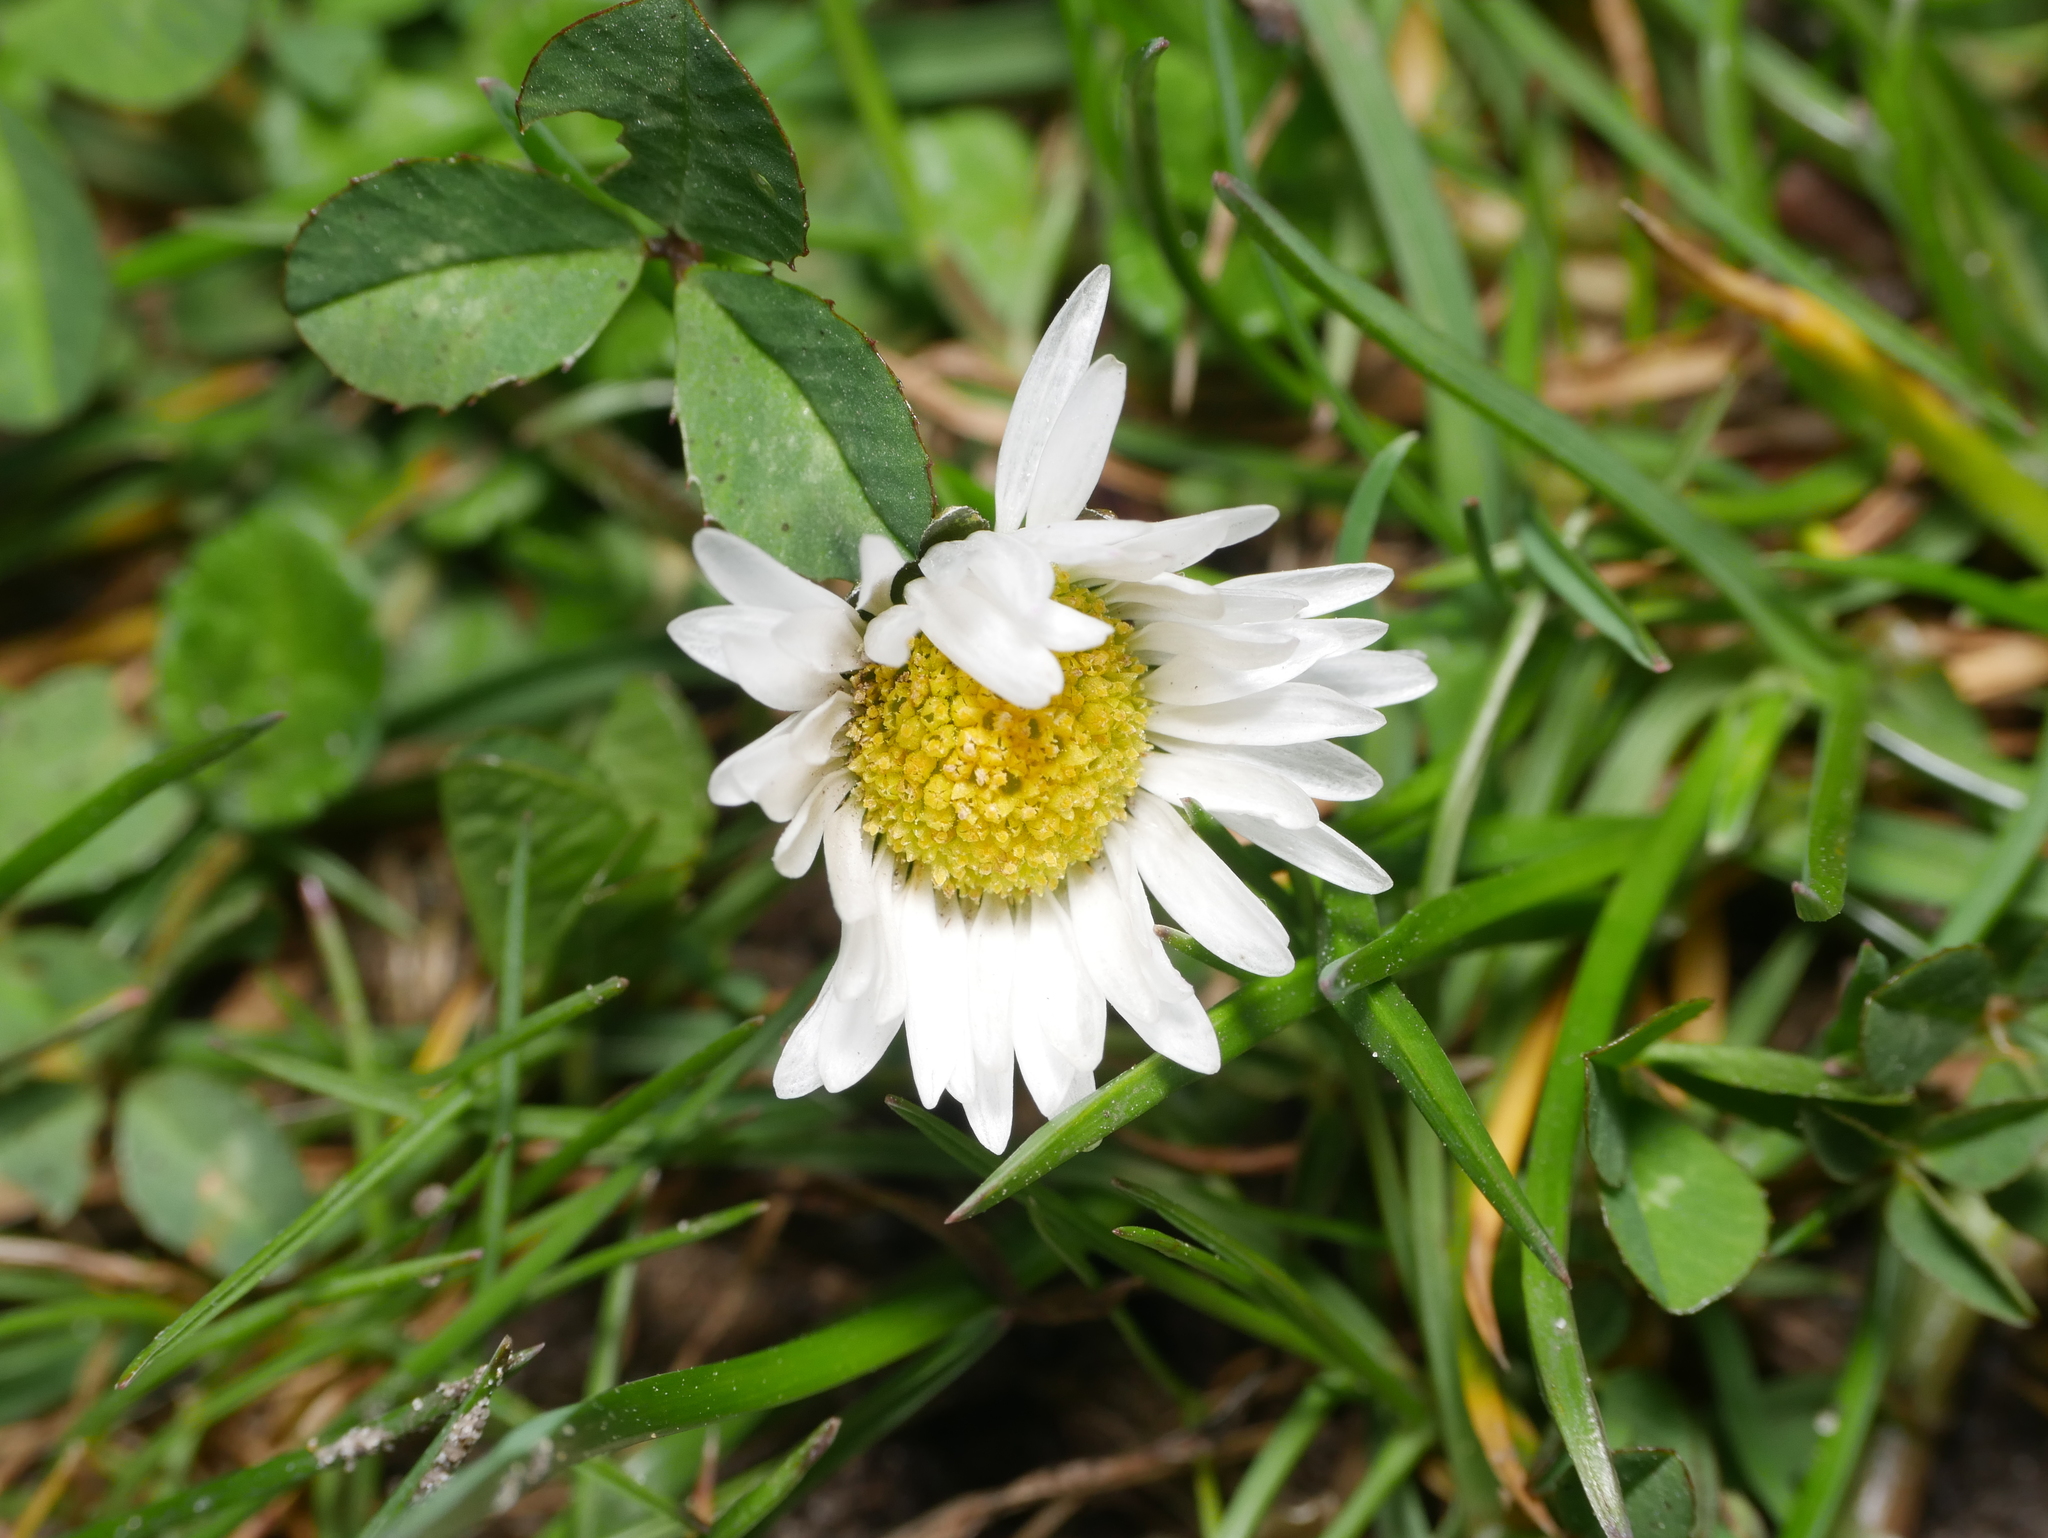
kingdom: Plantae
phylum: Tracheophyta
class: Magnoliopsida
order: Asterales
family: Asteraceae
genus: Bellis
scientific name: Bellis perennis
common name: Lawndaisy
